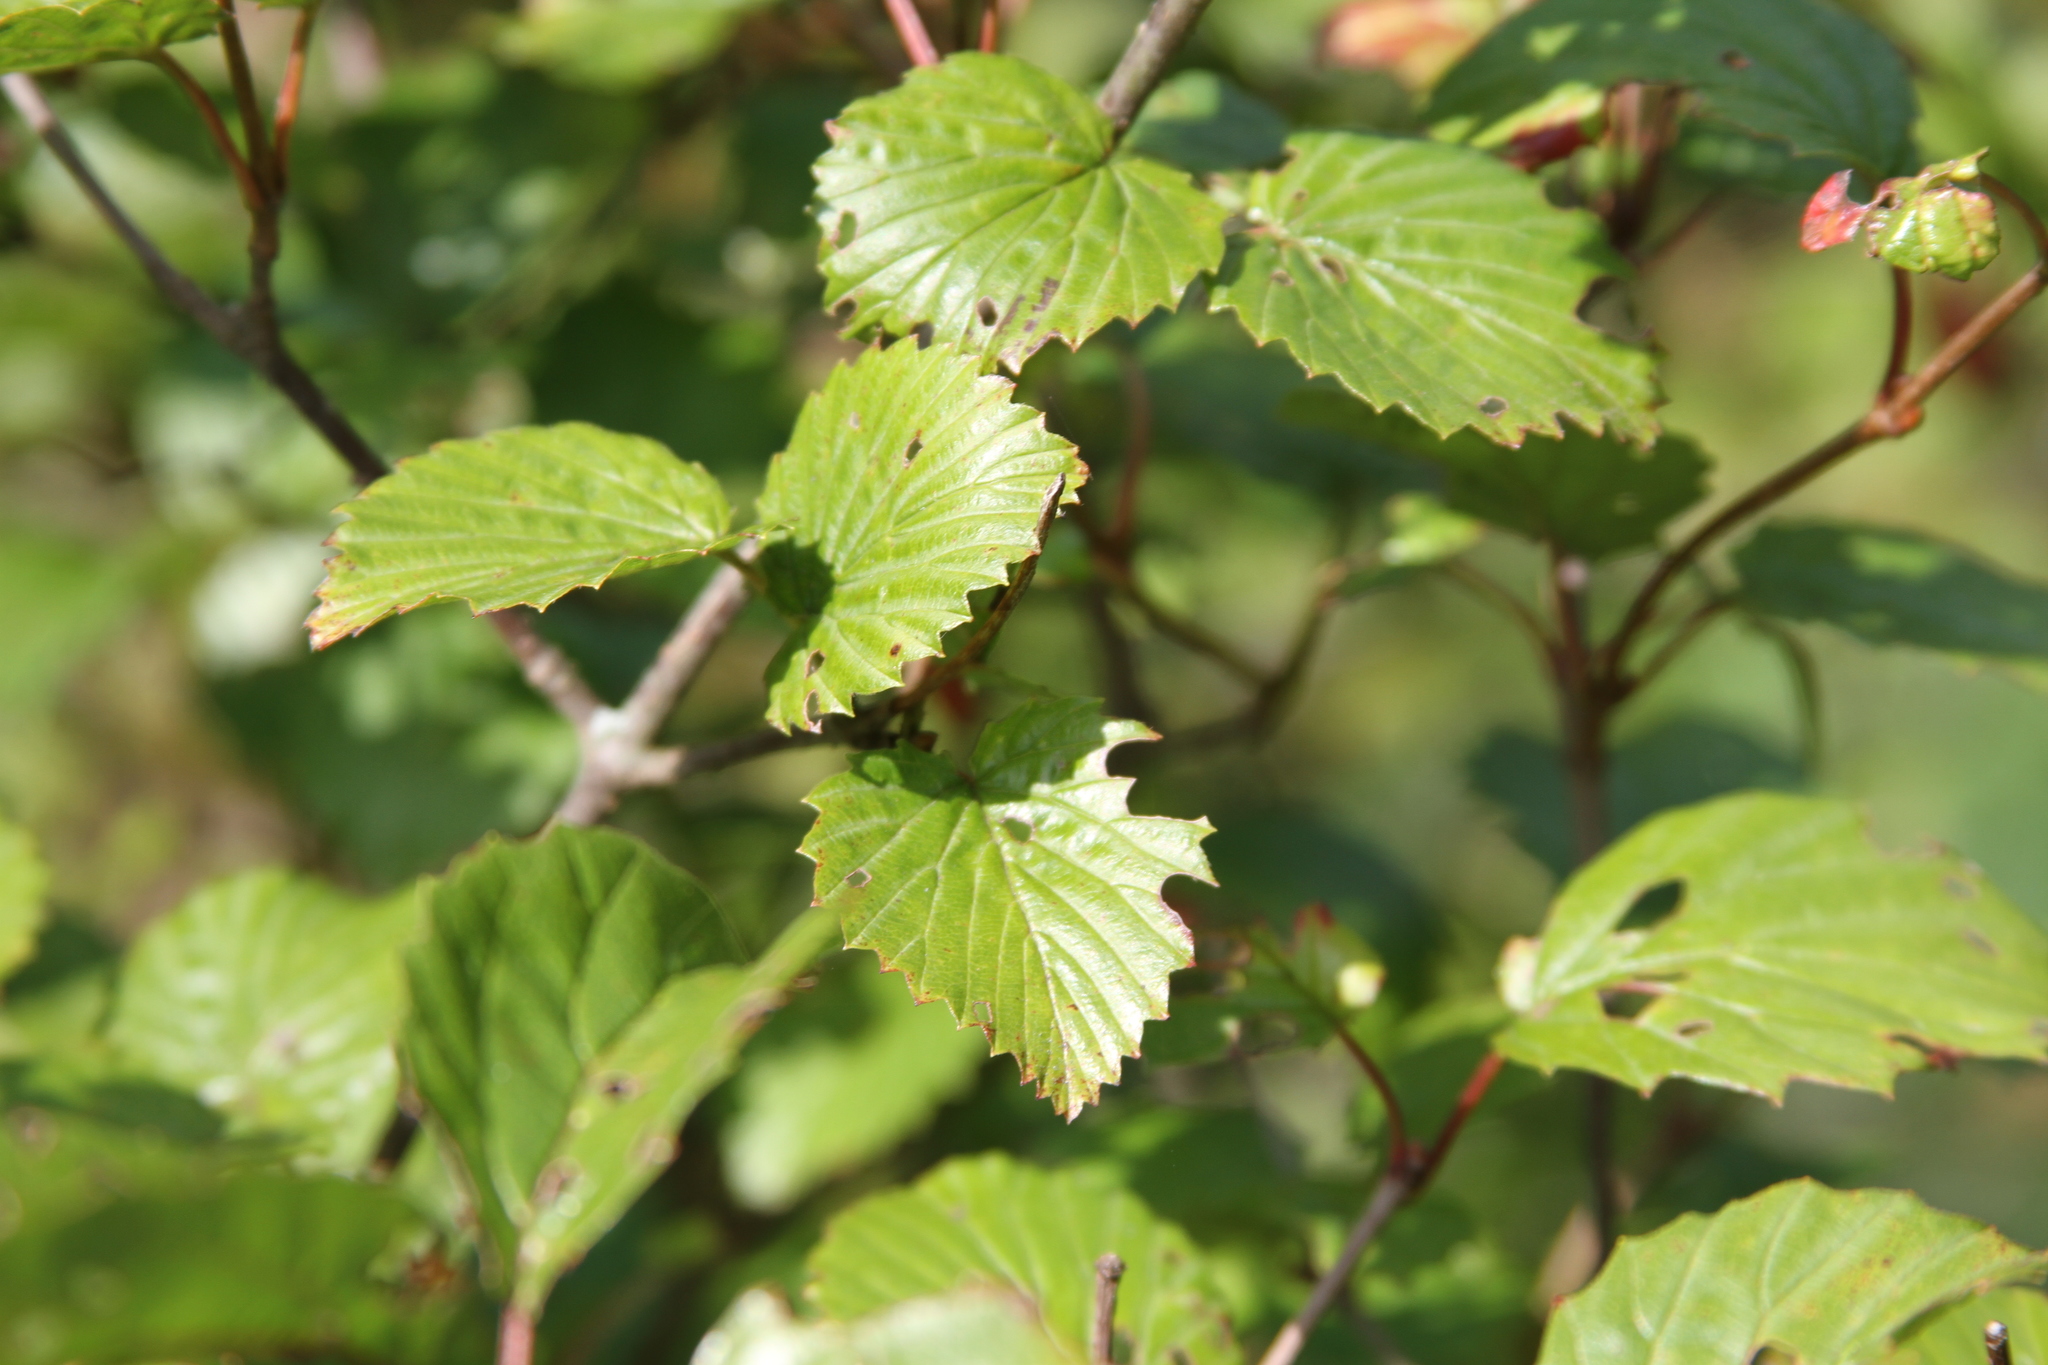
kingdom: Plantae
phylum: Tracheophyta
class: Magnoliopsida
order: Dipsacales
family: Viburnaceae
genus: Viburnum
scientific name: Viburnum recognitum
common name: Northern arrow-wood
